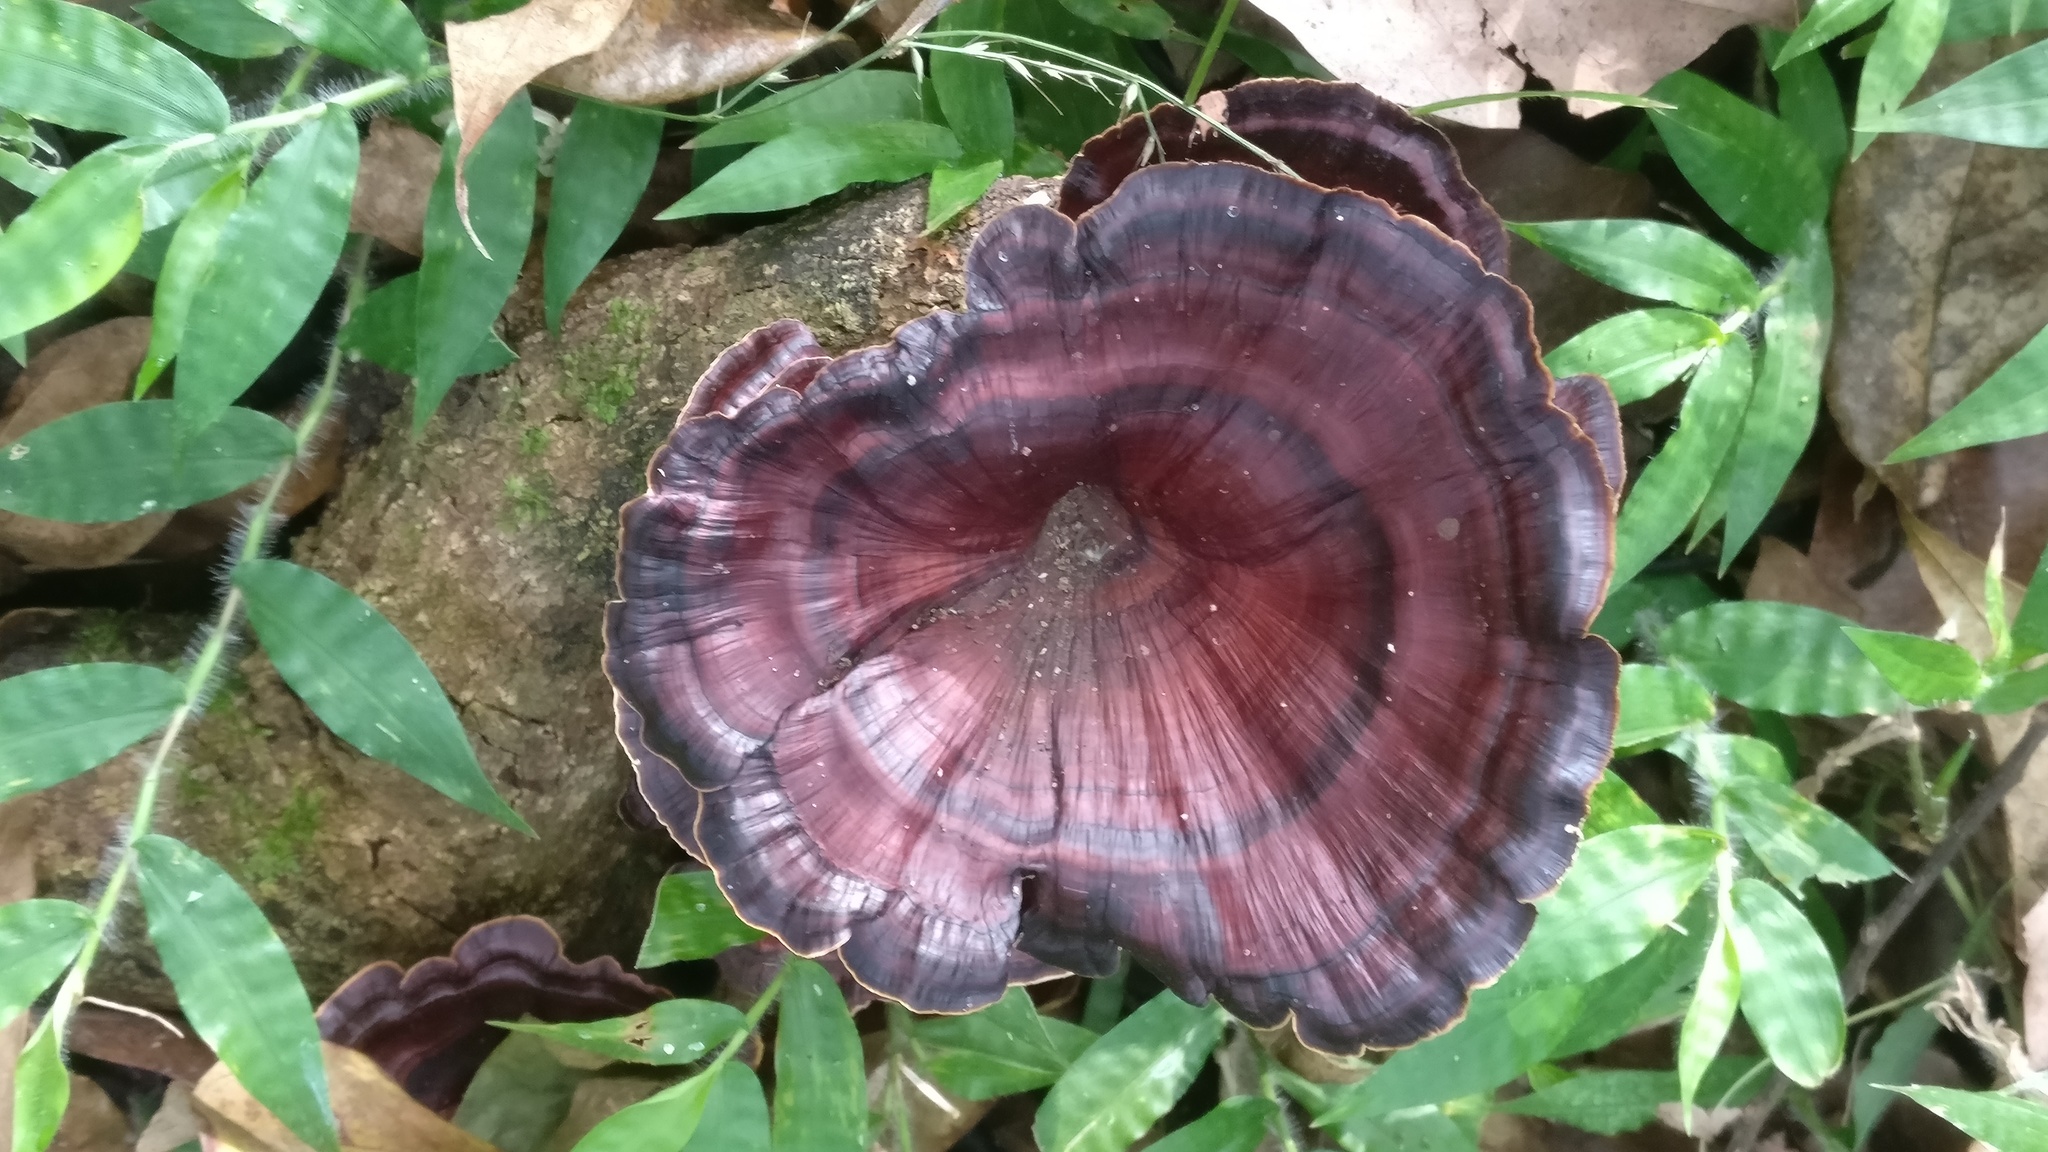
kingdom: Fungi
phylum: Basidiomycota
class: Agaricomycetes
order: Polyporales
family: Polyporaceae
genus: Microporus
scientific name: Microporus xanthopus
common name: Yellow-stemmed micropore
